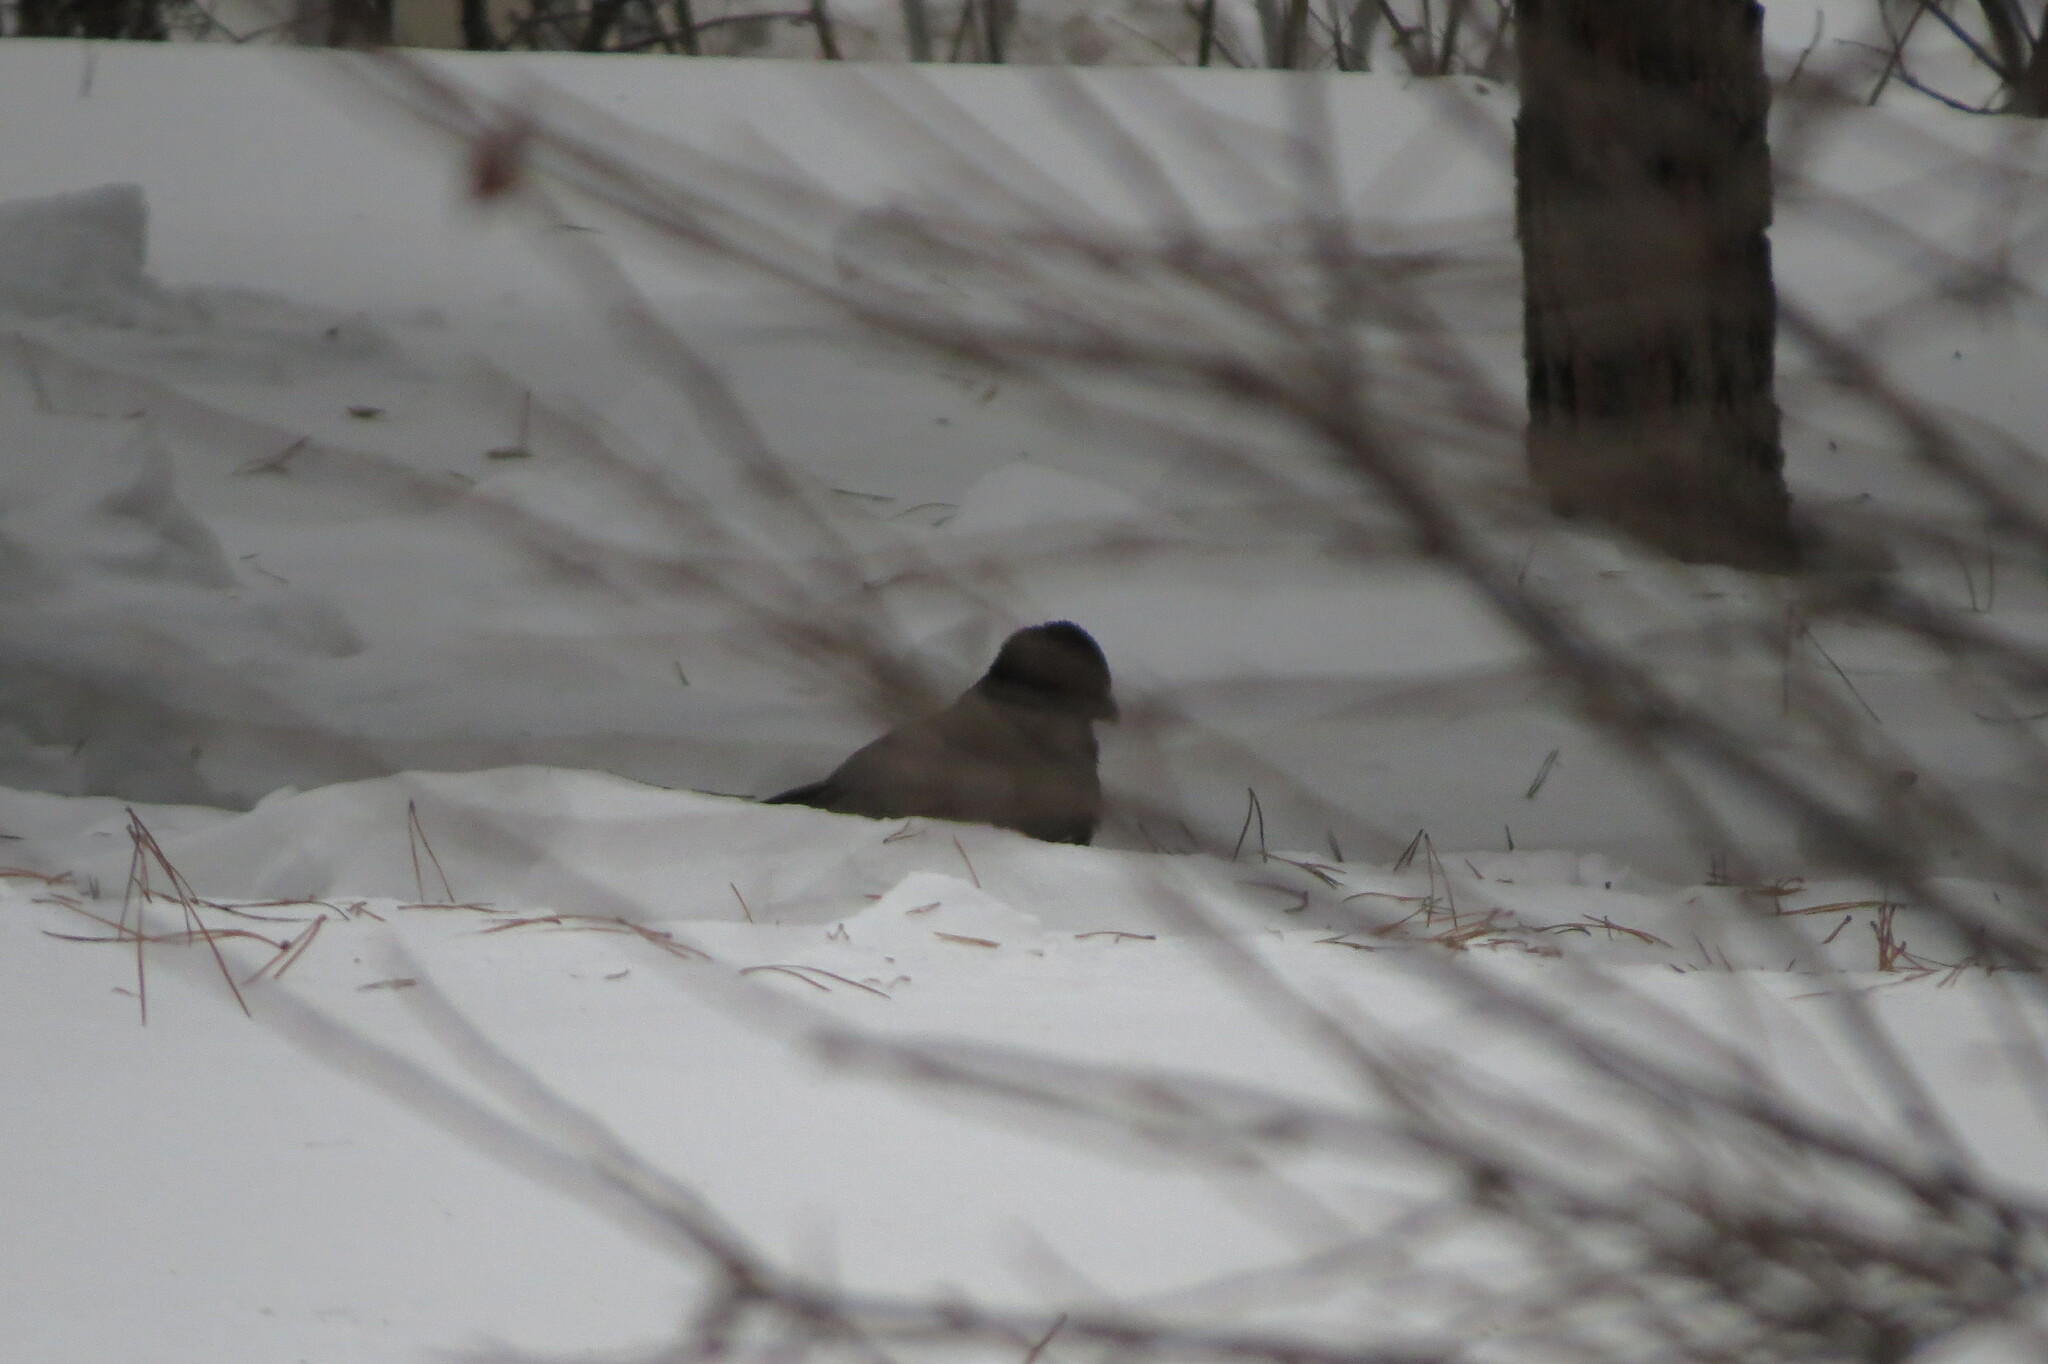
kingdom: Animalia
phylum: Chordata
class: Aves
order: Passeriformes
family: Corvidae
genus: Corvus
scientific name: Corvus cornix
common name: Hooded crow
